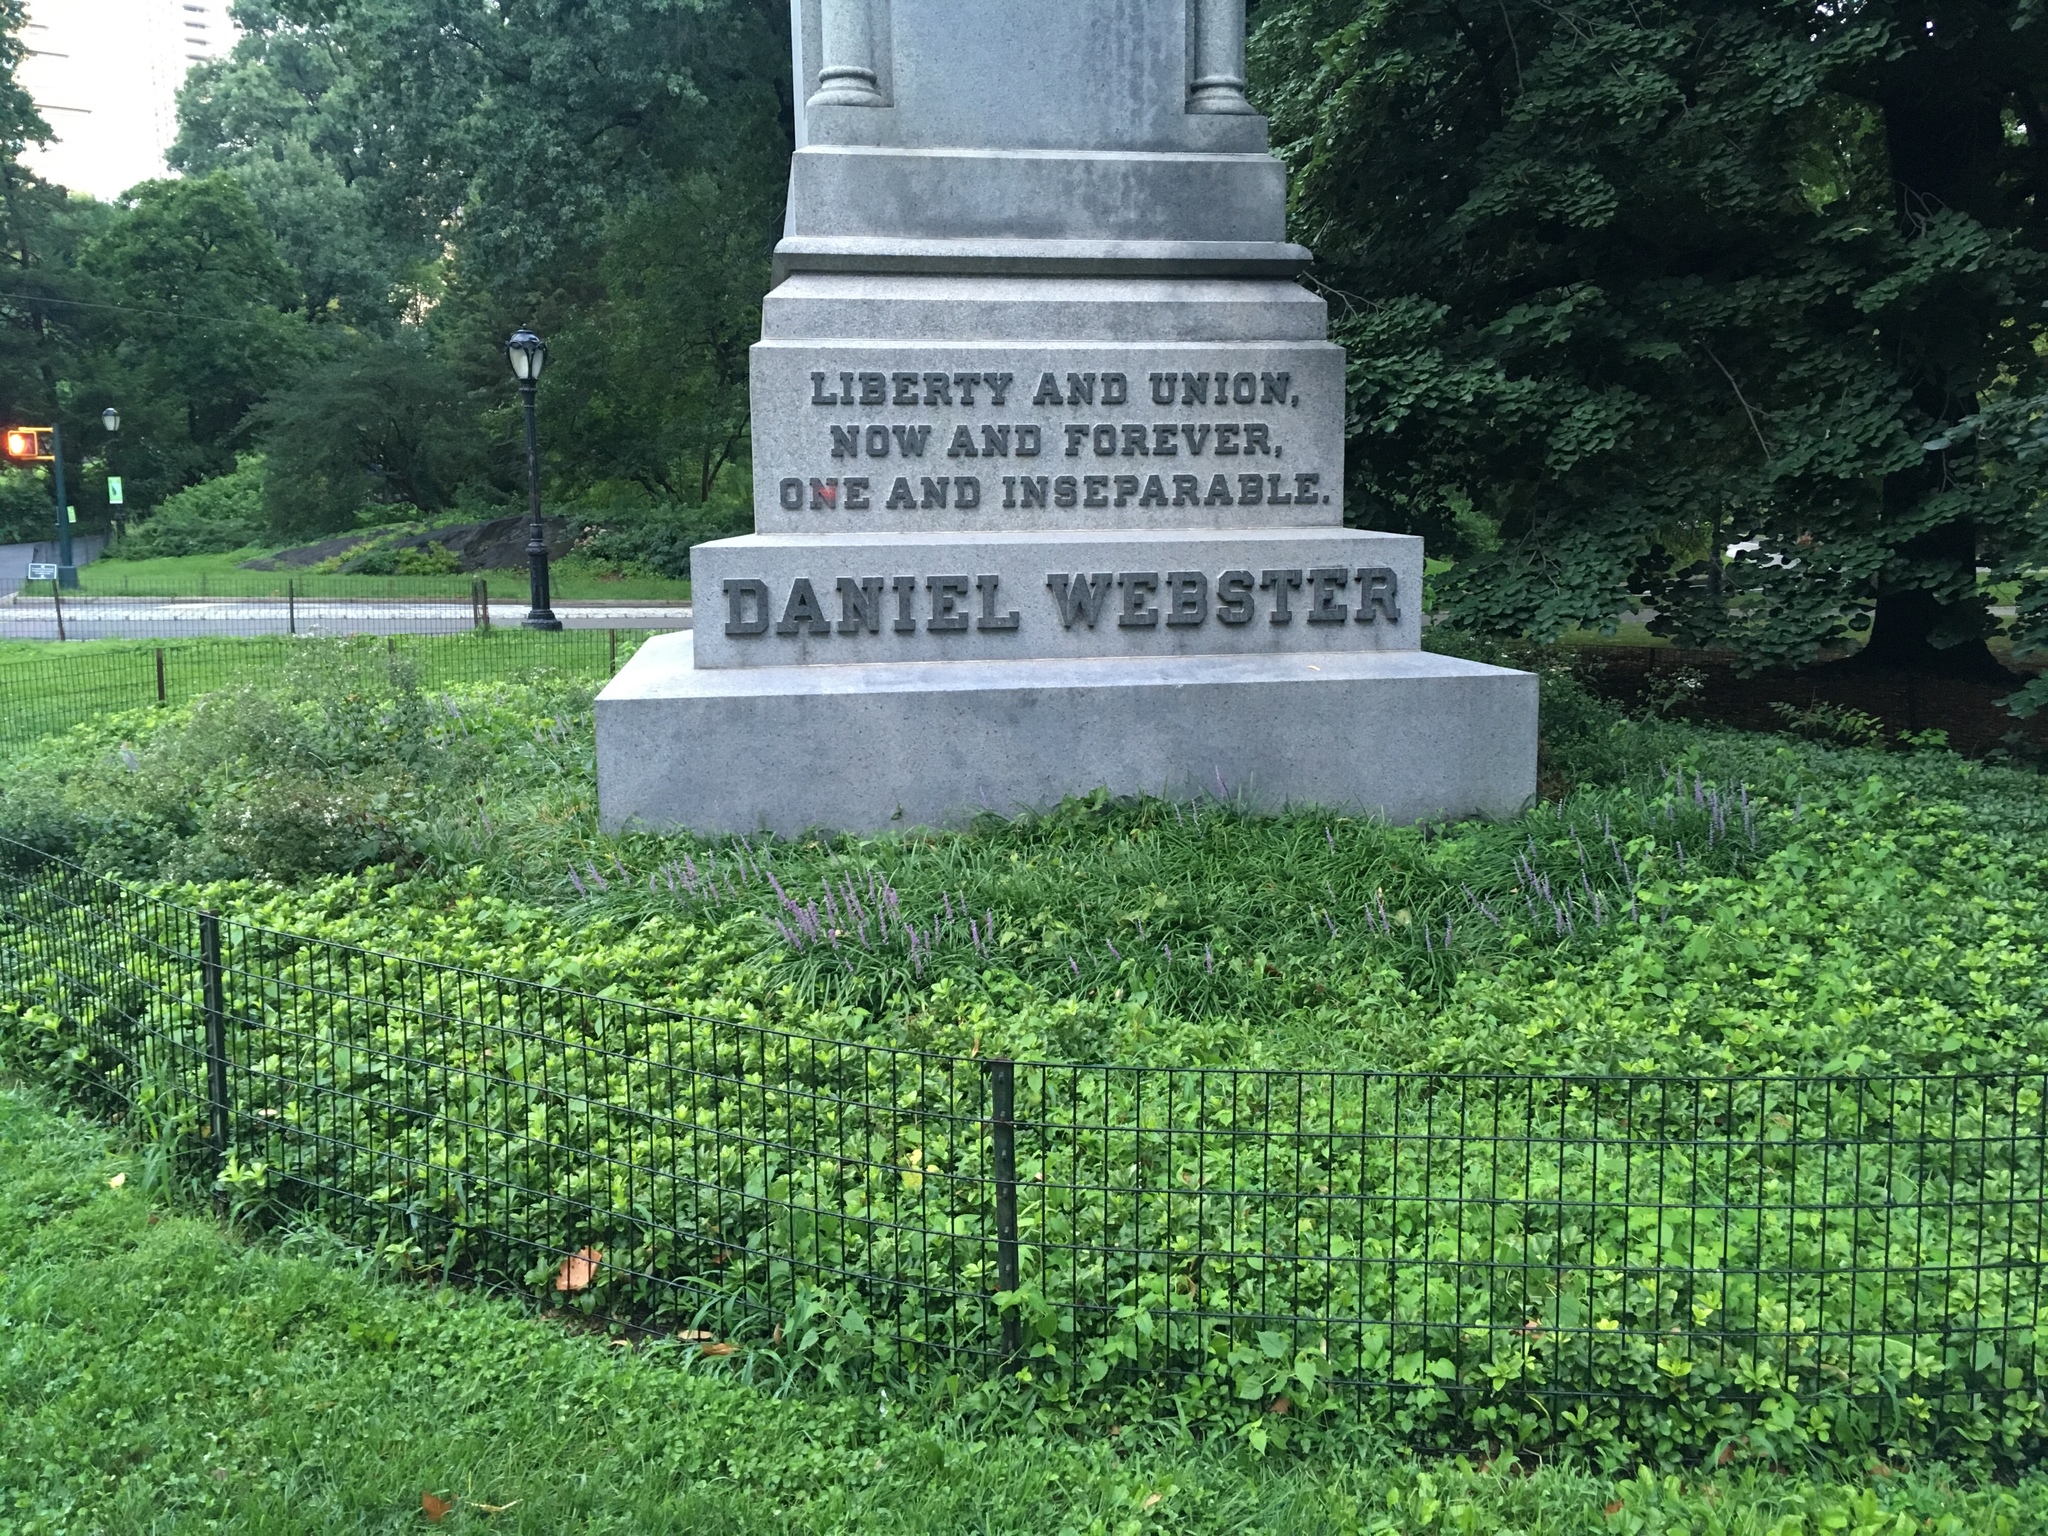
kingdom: Plantae
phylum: Tracheophyta
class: Magnoliopsida
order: Rosales
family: Moraceae
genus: Fatoua
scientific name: Fatoua villosa
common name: Hairy crabweed
